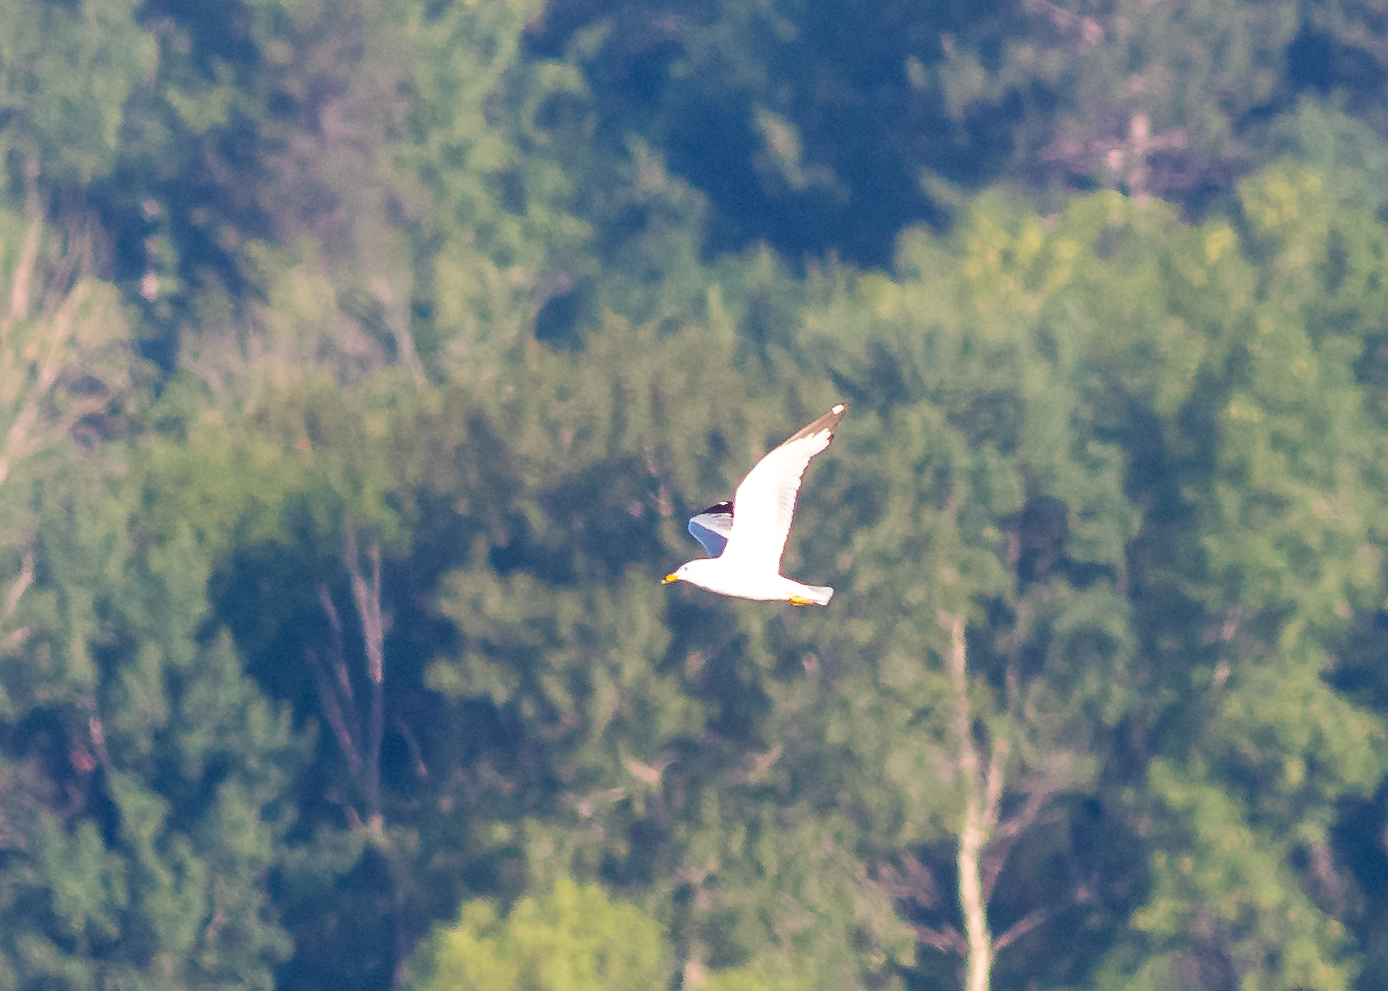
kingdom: Animalia
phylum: Chordata
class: Aves
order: Charadriiformes
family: Laridae
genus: Larus
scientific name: Larus delawarensis
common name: Ring-billed gull
